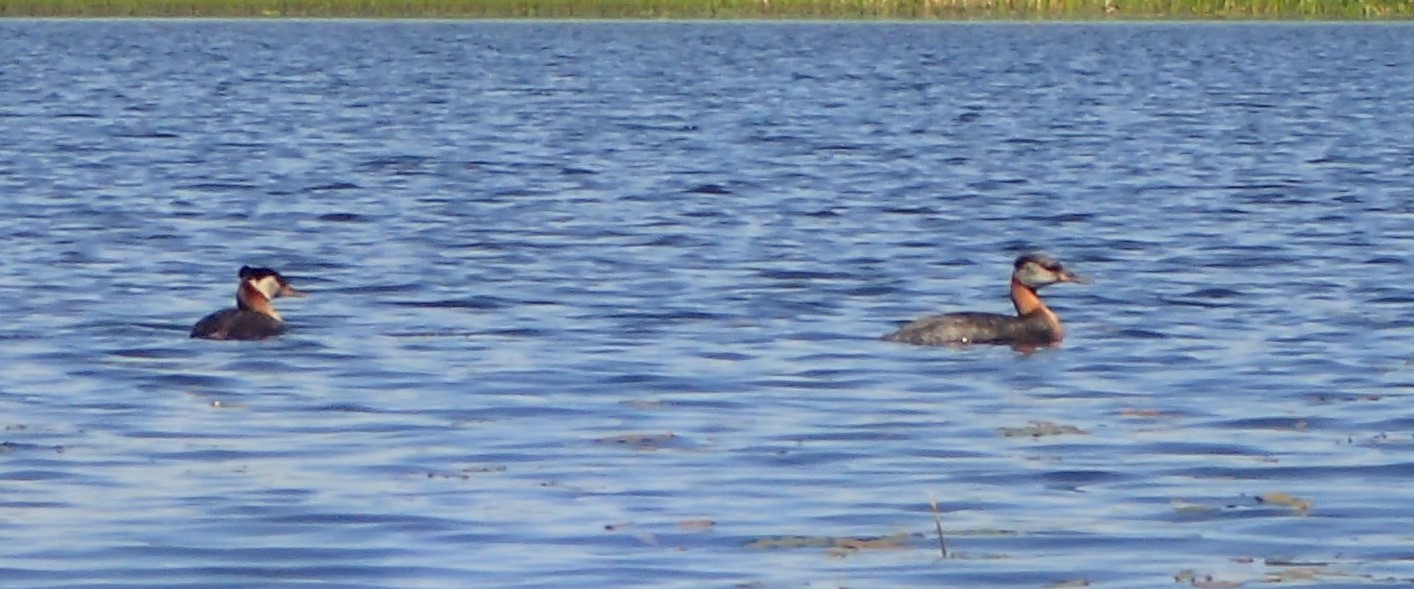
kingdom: Animalia
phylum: Chordata
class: Aves
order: Podicipediformes
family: Podicipedidae
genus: Podiceps
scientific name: Podiceps grisegena
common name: Red-necked grebe
